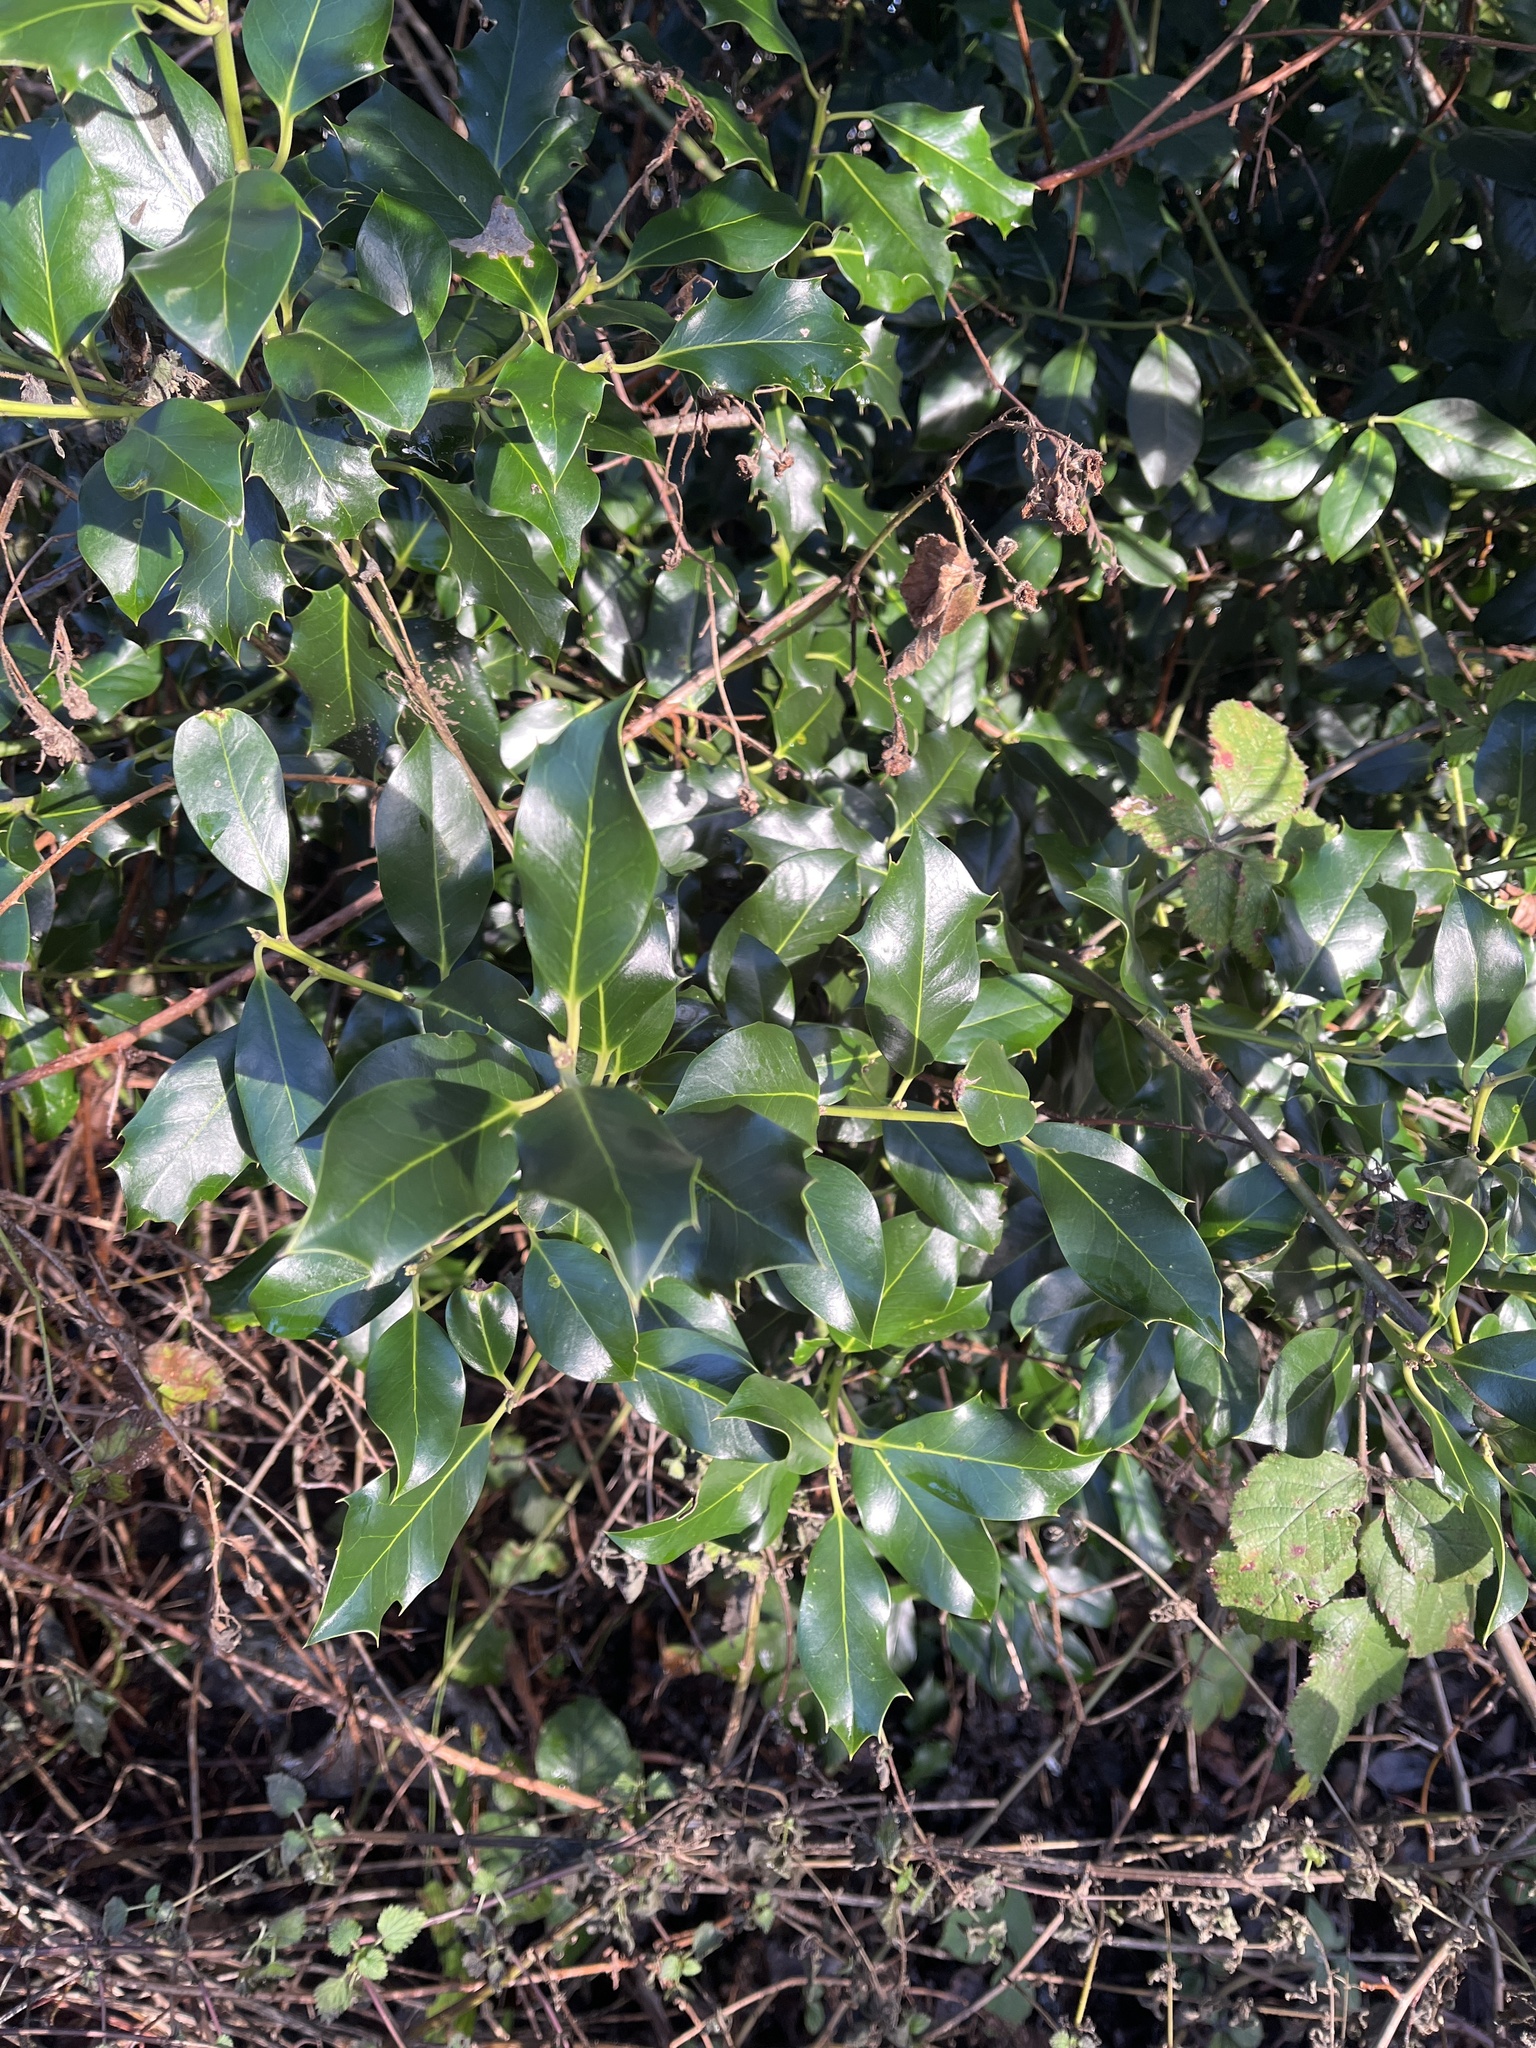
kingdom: Plantae
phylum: Tracheophyta
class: Magnoliopsida
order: Aquifoliales
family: Aquifoliaceae
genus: Ilex
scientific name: Ilex aquifolium
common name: English holly
